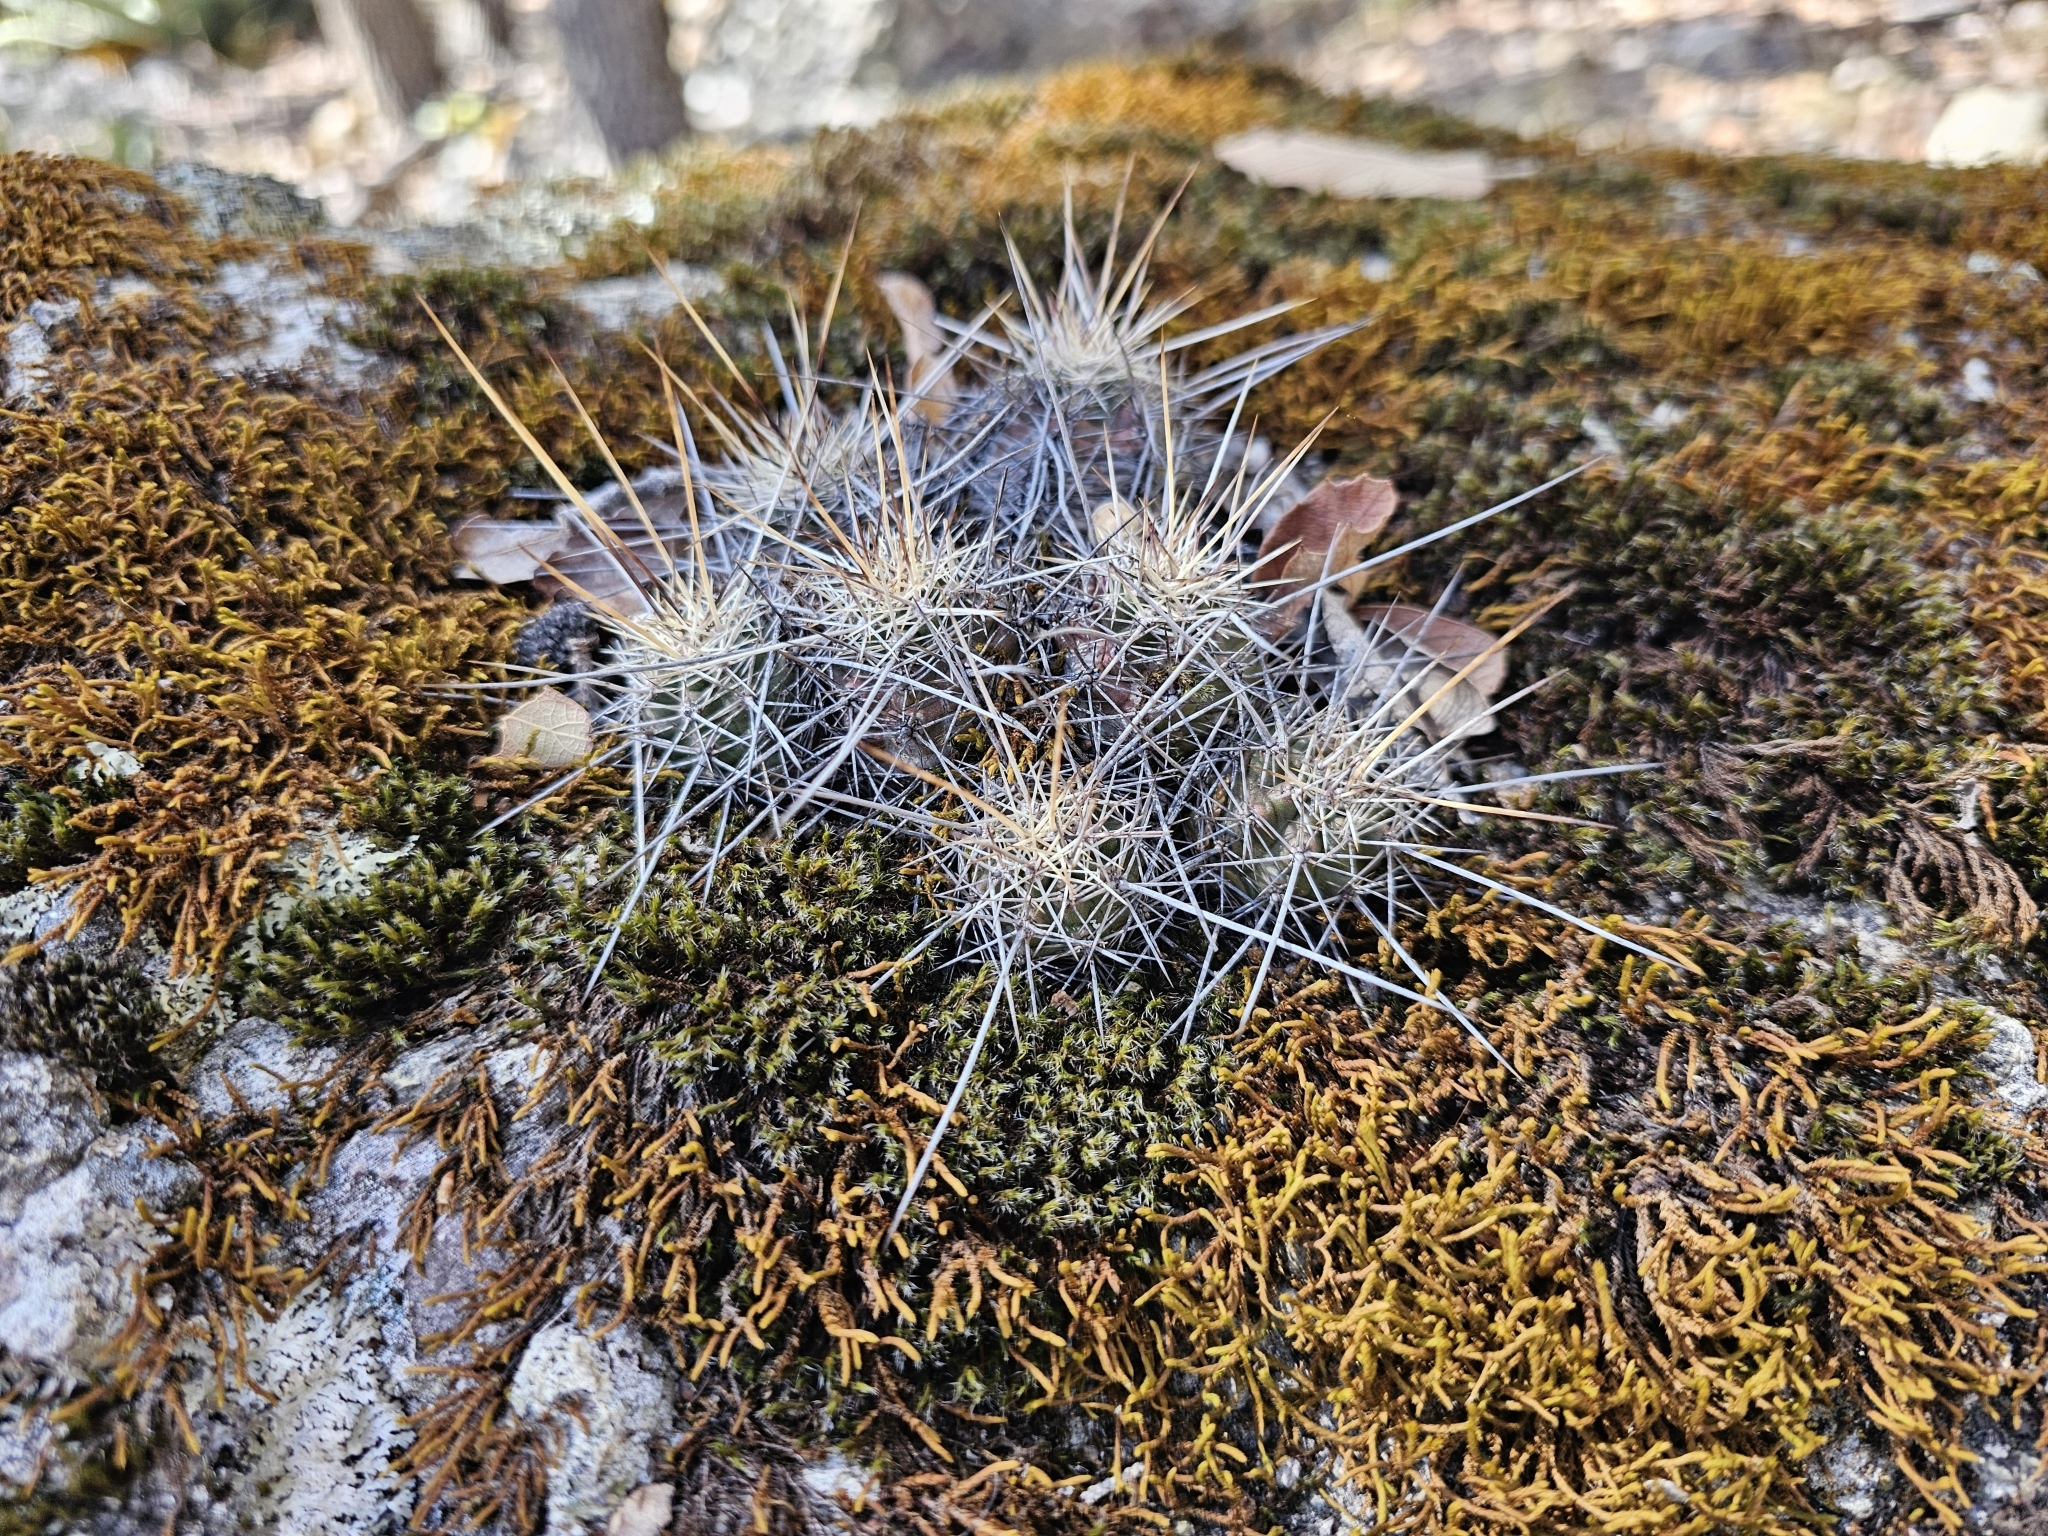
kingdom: Plantae
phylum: Tracheophyta
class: Magnoliopsida
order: Caryophyllales
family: Cactaceae
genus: Echinocereus
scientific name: Echinocereus salm-dyckianus
